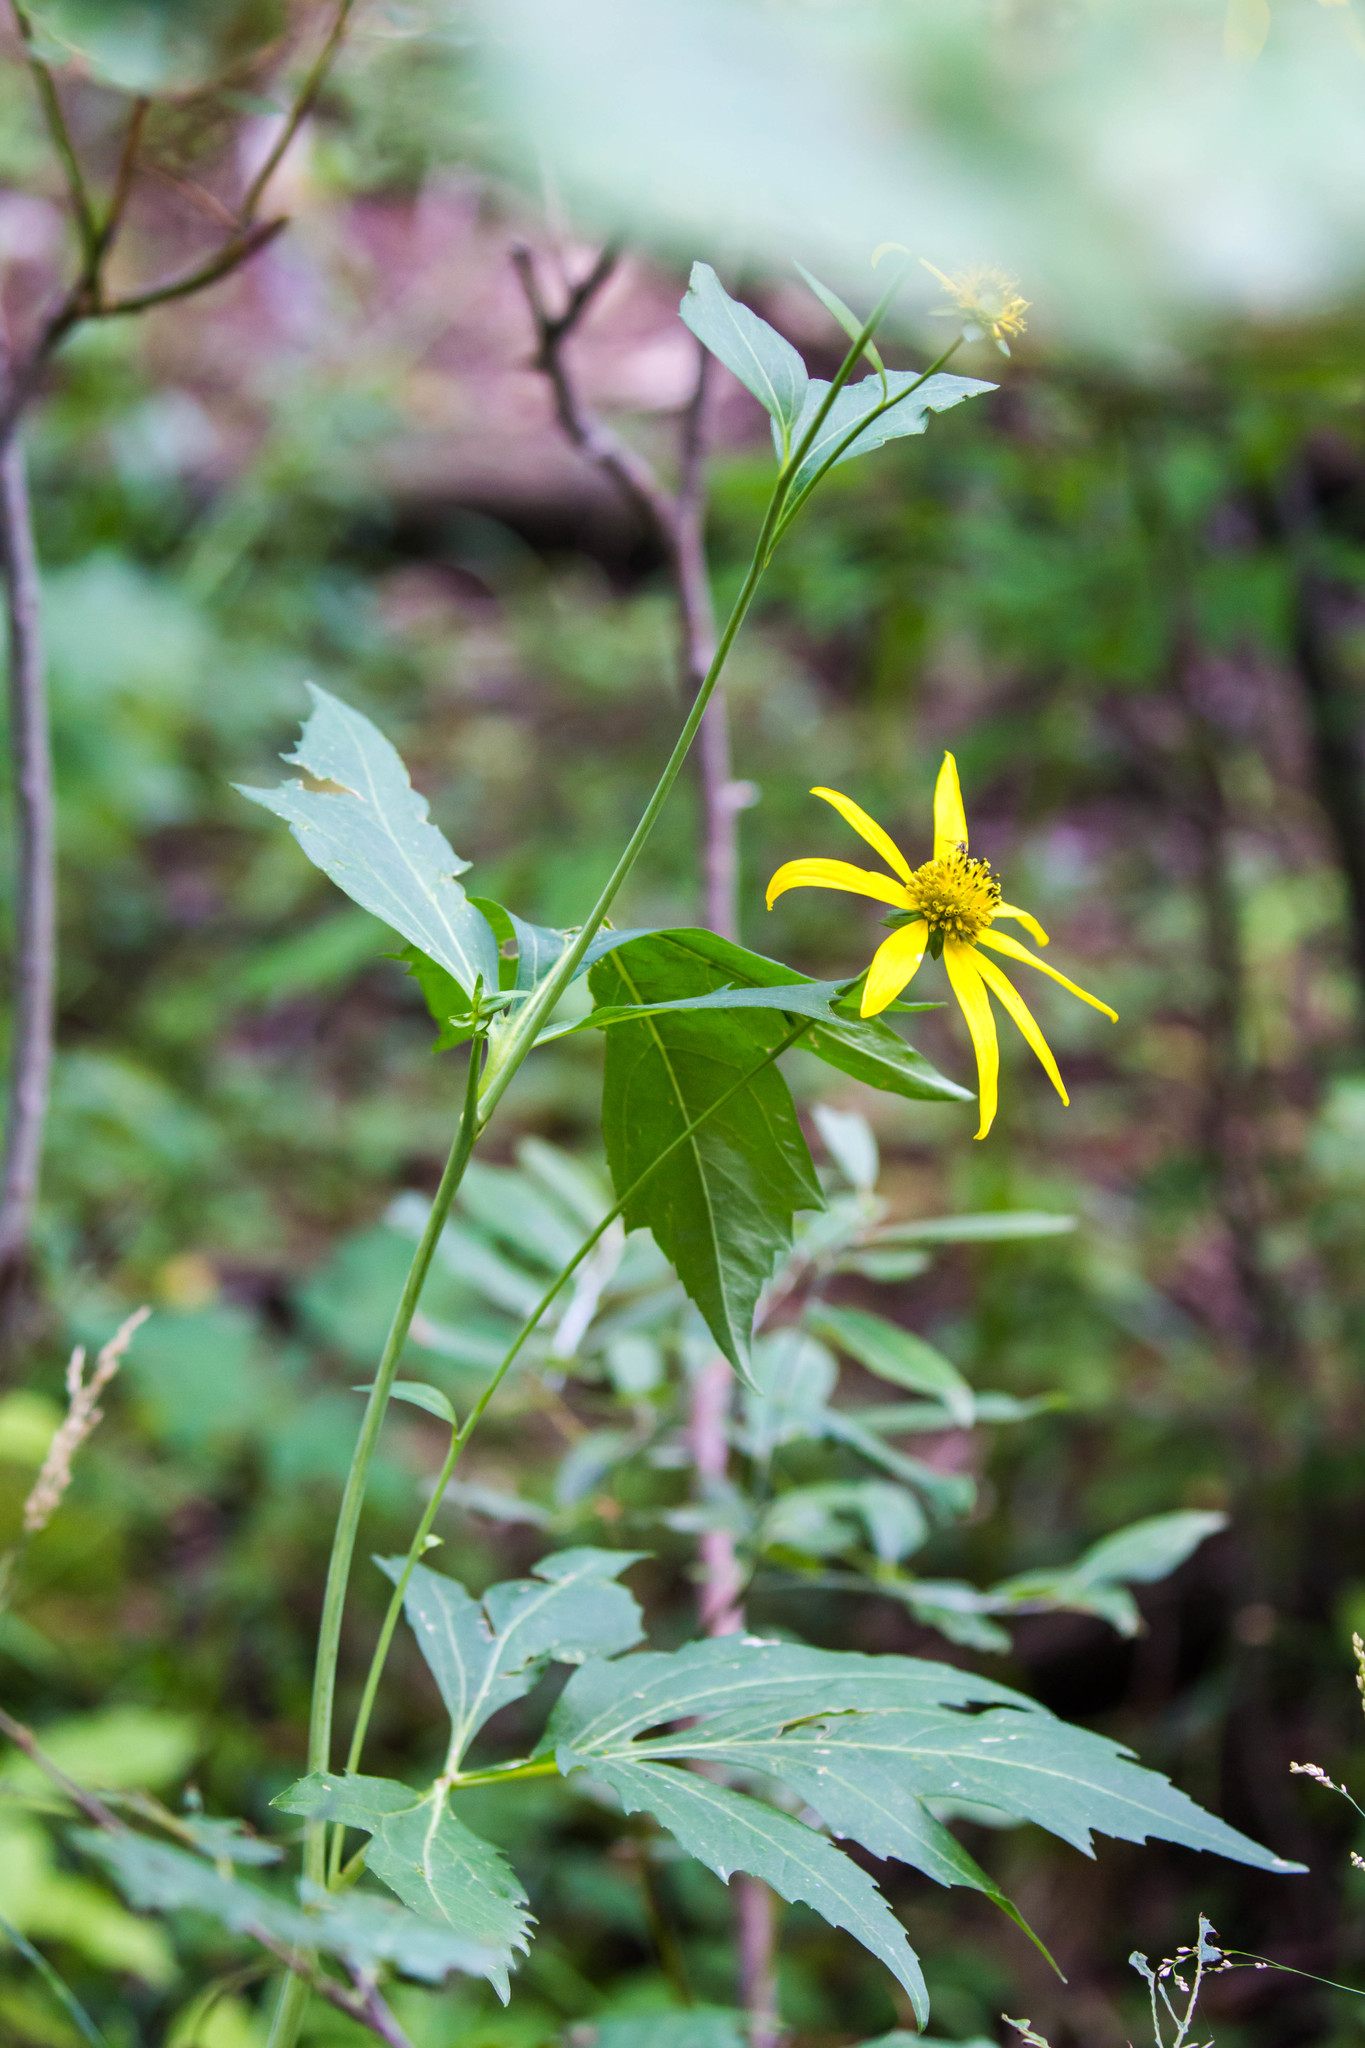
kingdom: Plantae
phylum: Tracheophyta
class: Magnoliopsida
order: Asterales
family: Asteraceae
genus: Rudbeckia
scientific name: Rudbeckia laciniata
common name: Coneflower
